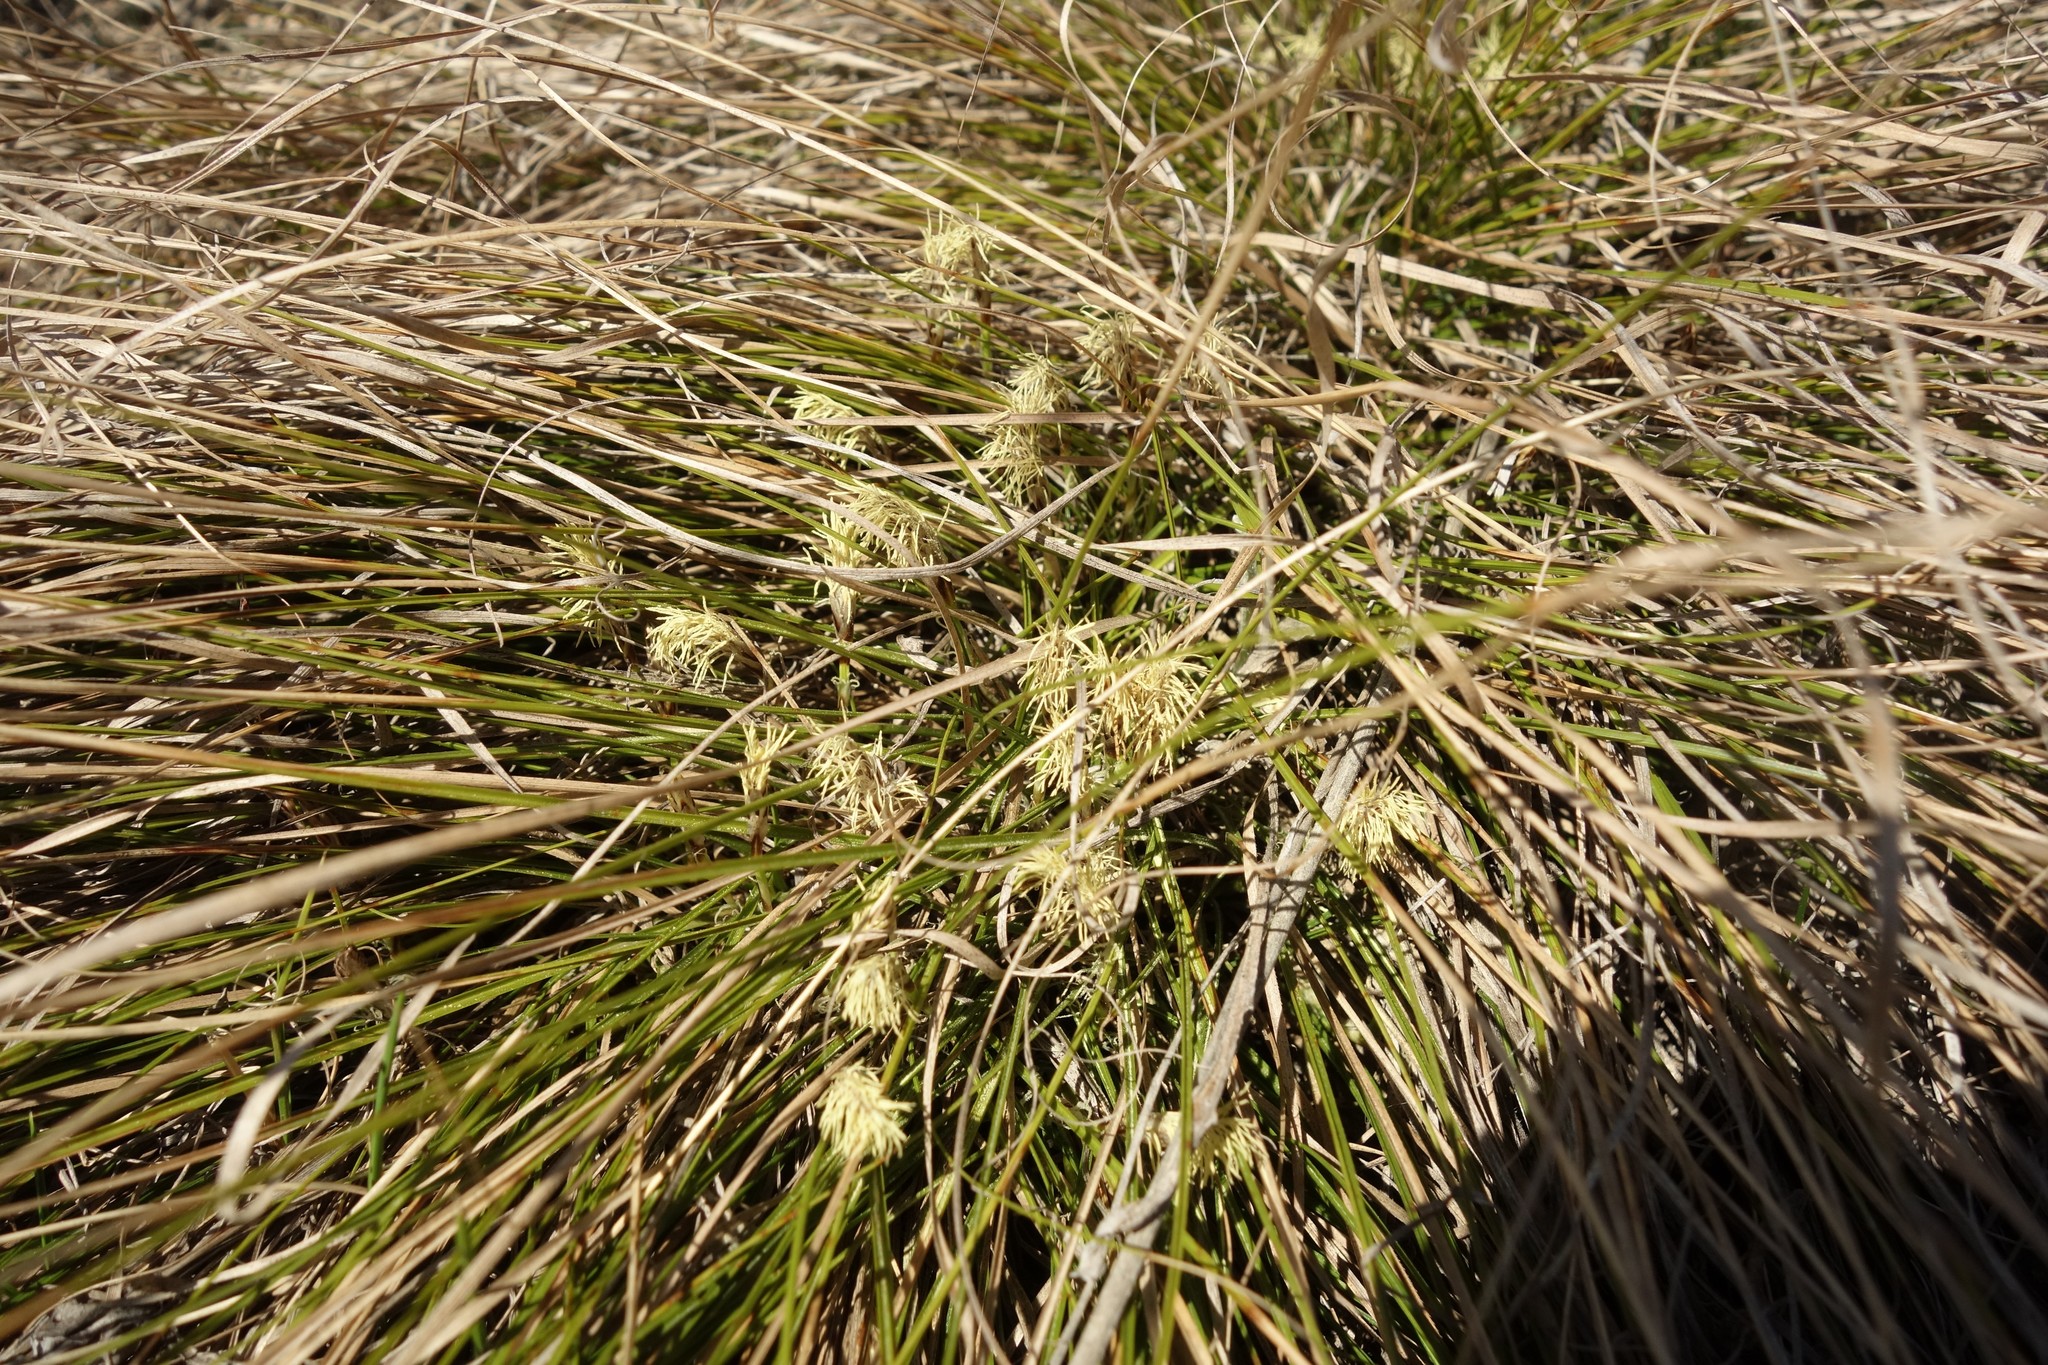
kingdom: Plantae
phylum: Tracheophyta
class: Liliopsida
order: Poales
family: Cyperaceae
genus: Carex
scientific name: Carex humilis
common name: Dwarf sedge
